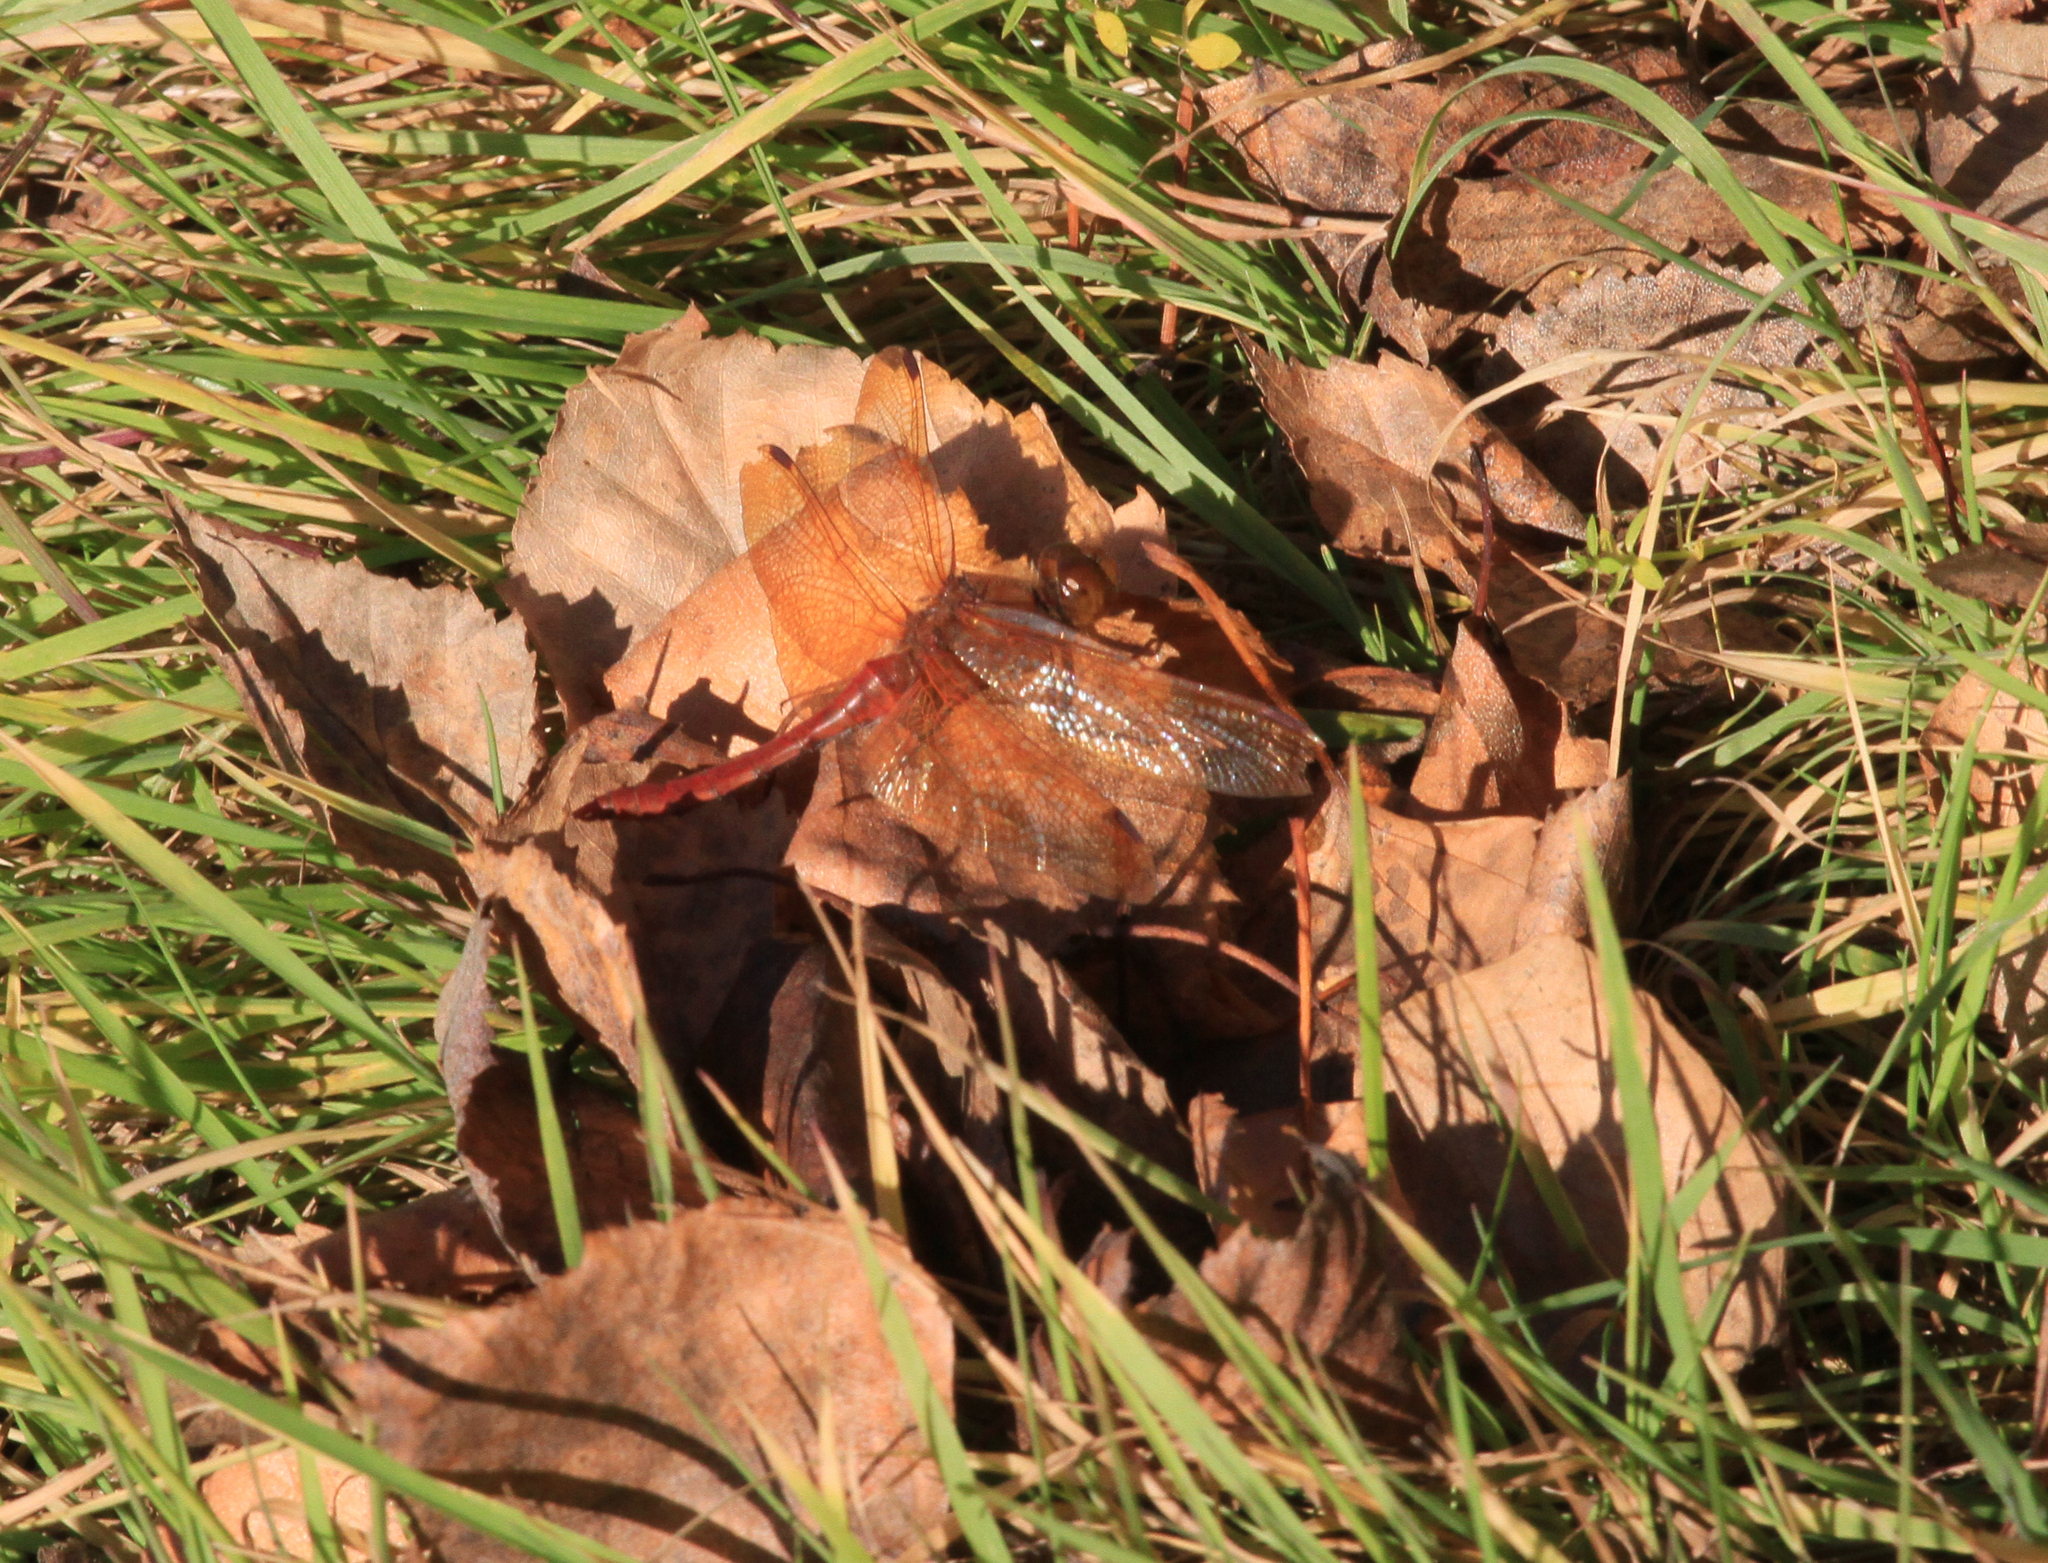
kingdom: Animalia
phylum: Arthropoda
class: Insecta
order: Odonata
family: Libellulidae
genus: Sympetrum
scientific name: Sympetrum croceolum
